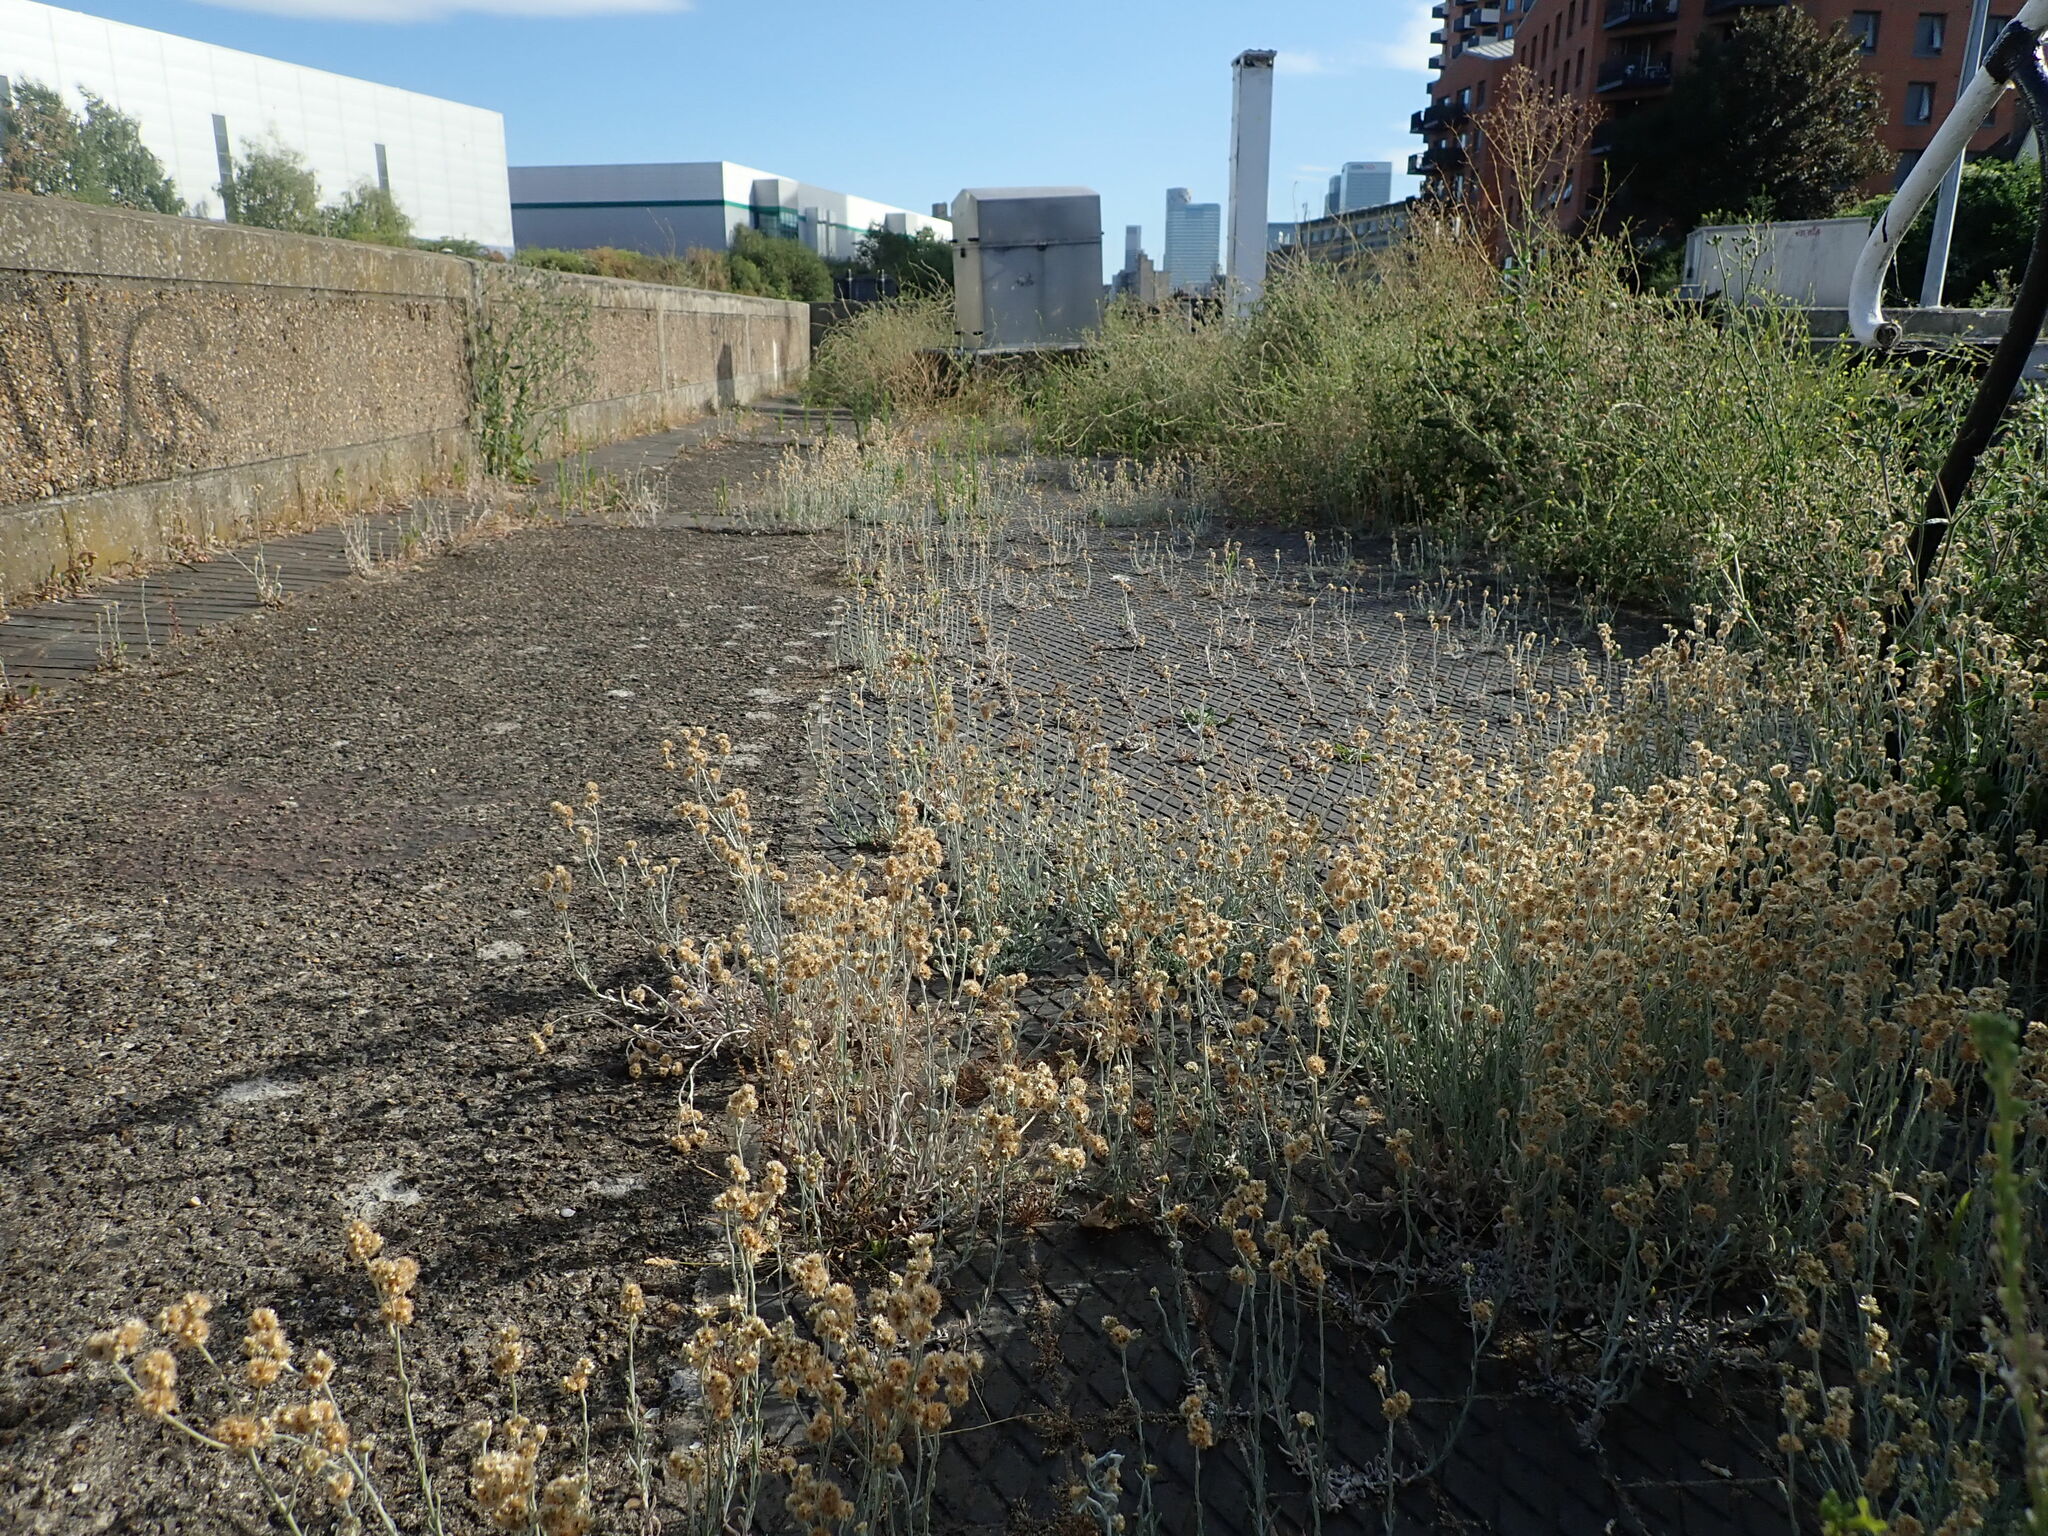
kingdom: Plantae
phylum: Tracheophyta
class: Magnoliopsida
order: Asterales
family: Asteraceae
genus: Helichrysum
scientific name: Helichrysum luteoalbum
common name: Daisy
